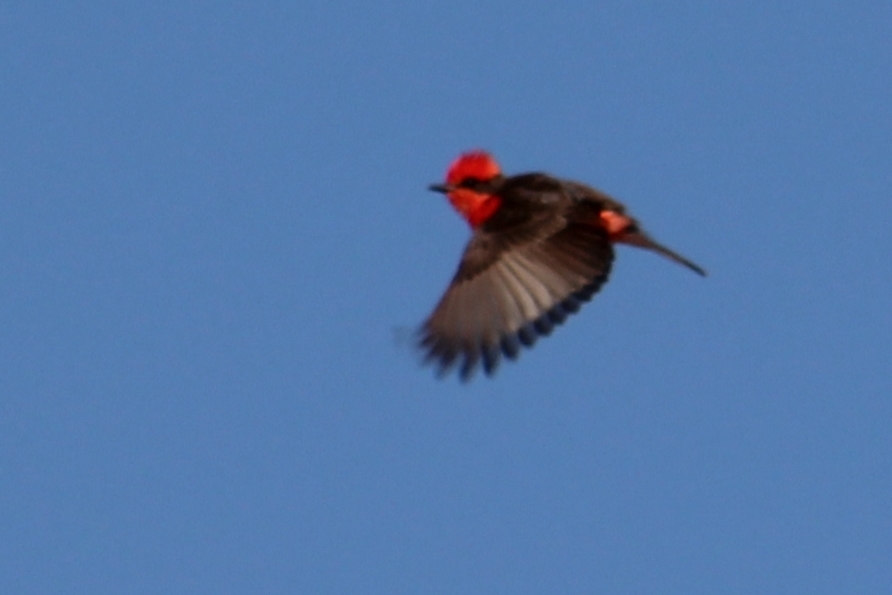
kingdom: Animalia
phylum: Chordata
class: Aves
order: Passeriformes
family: Tyrannidae
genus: Pyrocephalus
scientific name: Pyrocephalus rubinus
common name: Vermilion flycatcher
